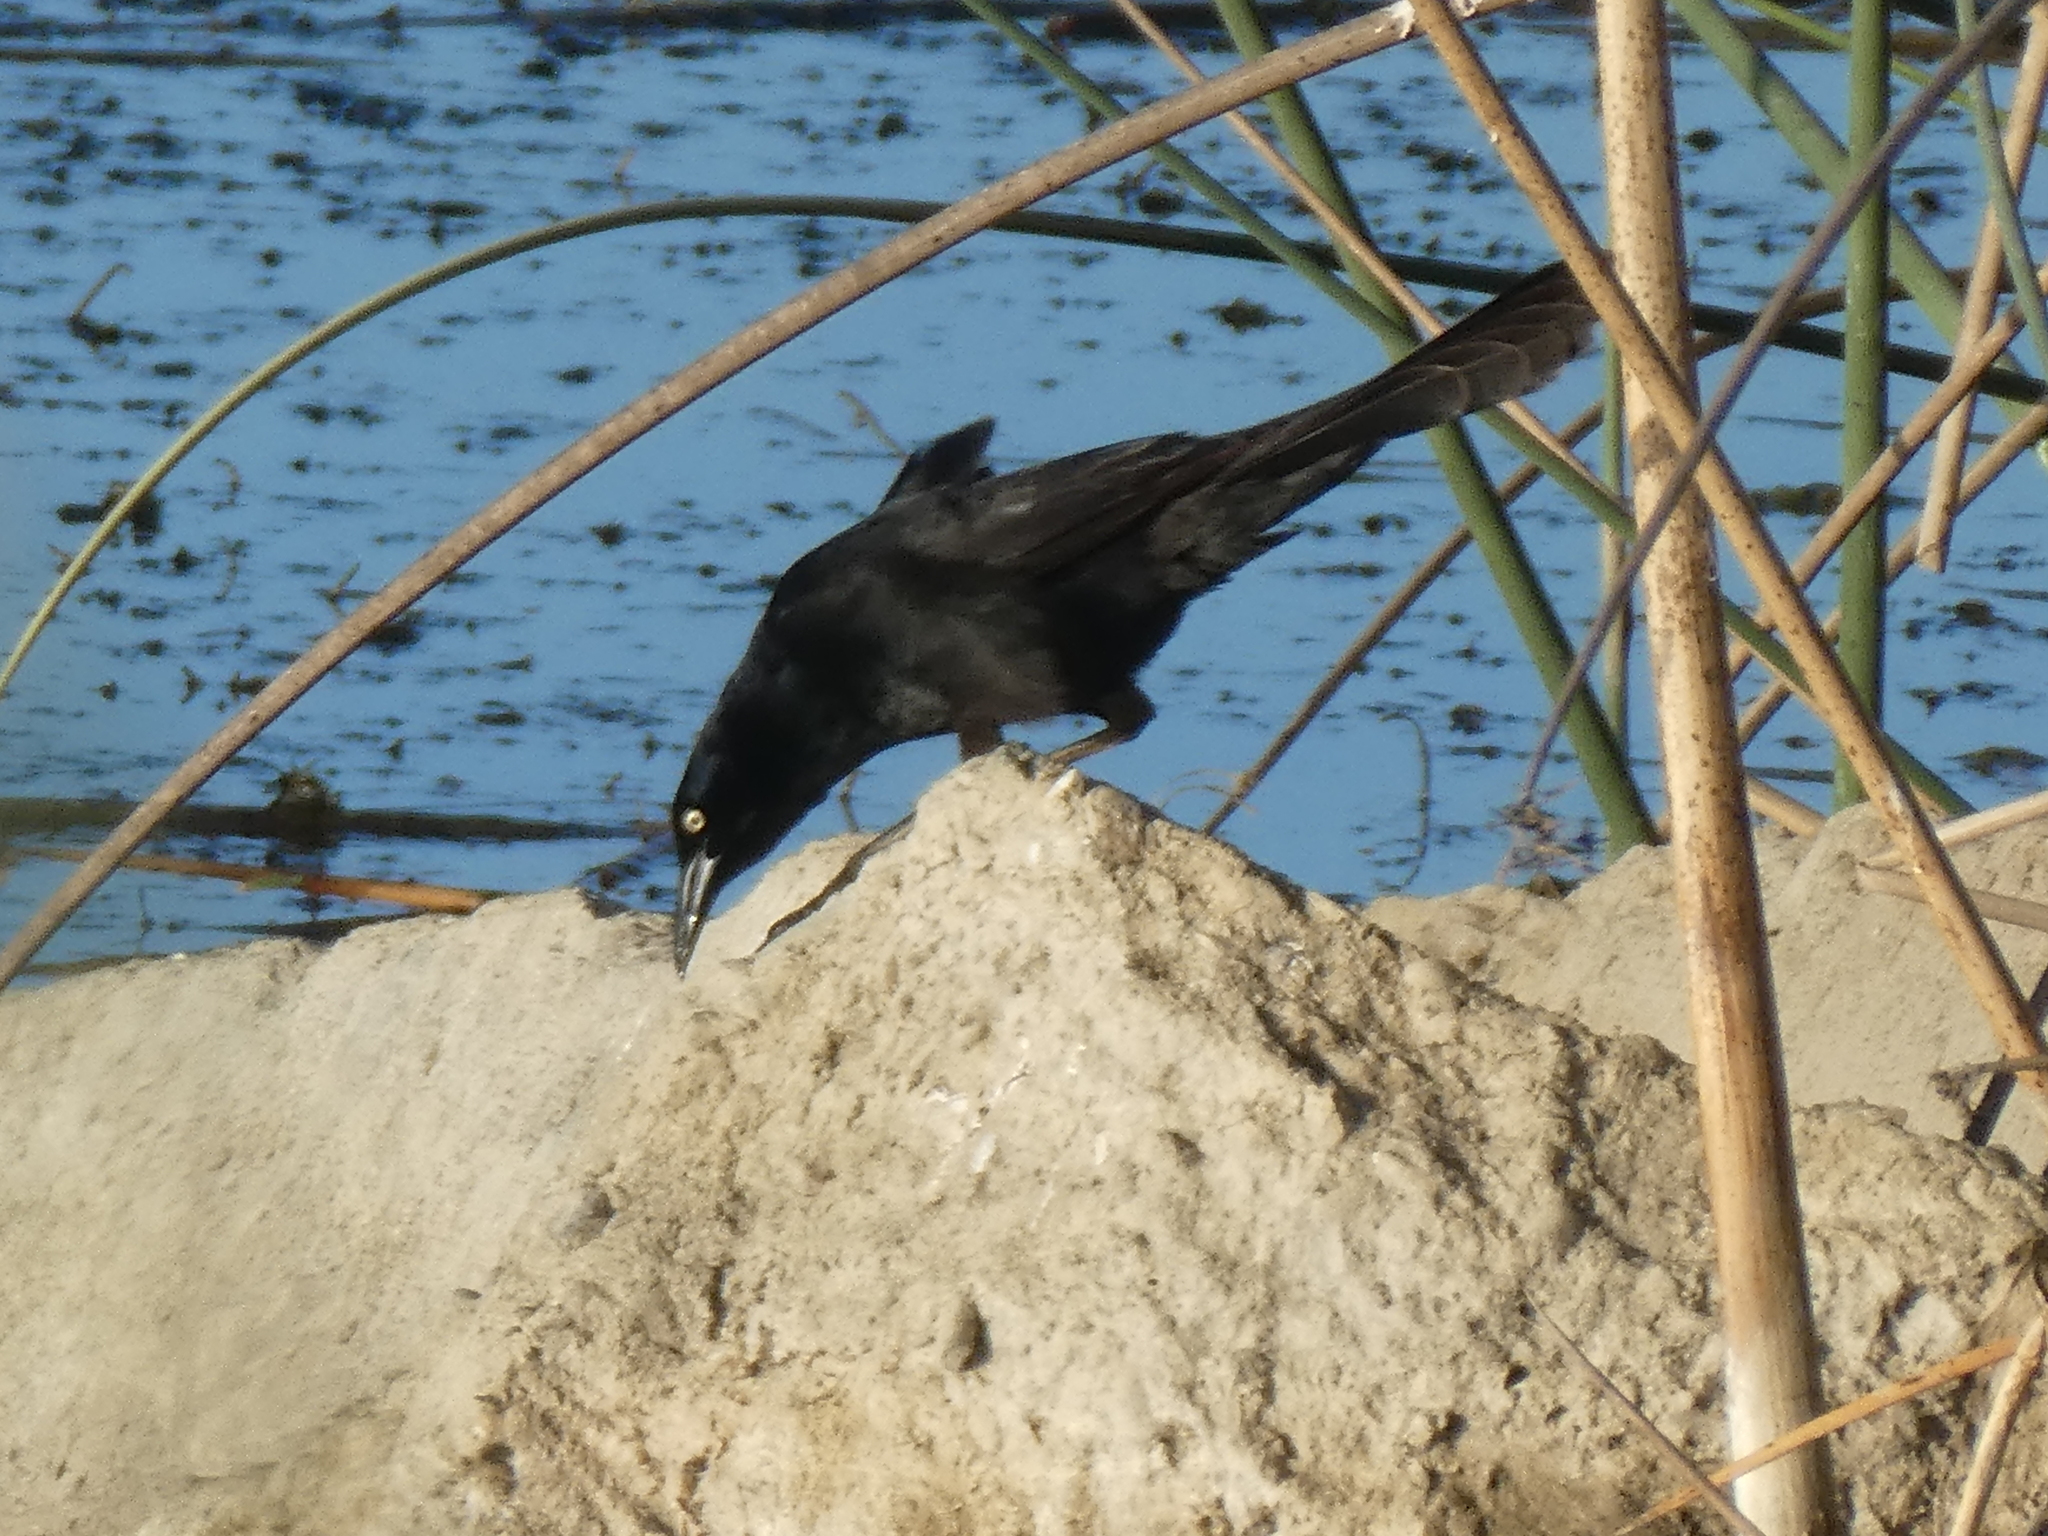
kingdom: Animalia
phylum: Chordata
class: Aves
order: Passeriformes
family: Icteridae
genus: Quiscalus
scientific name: Quiscalus mexicanus
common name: Great-tailed grackle
